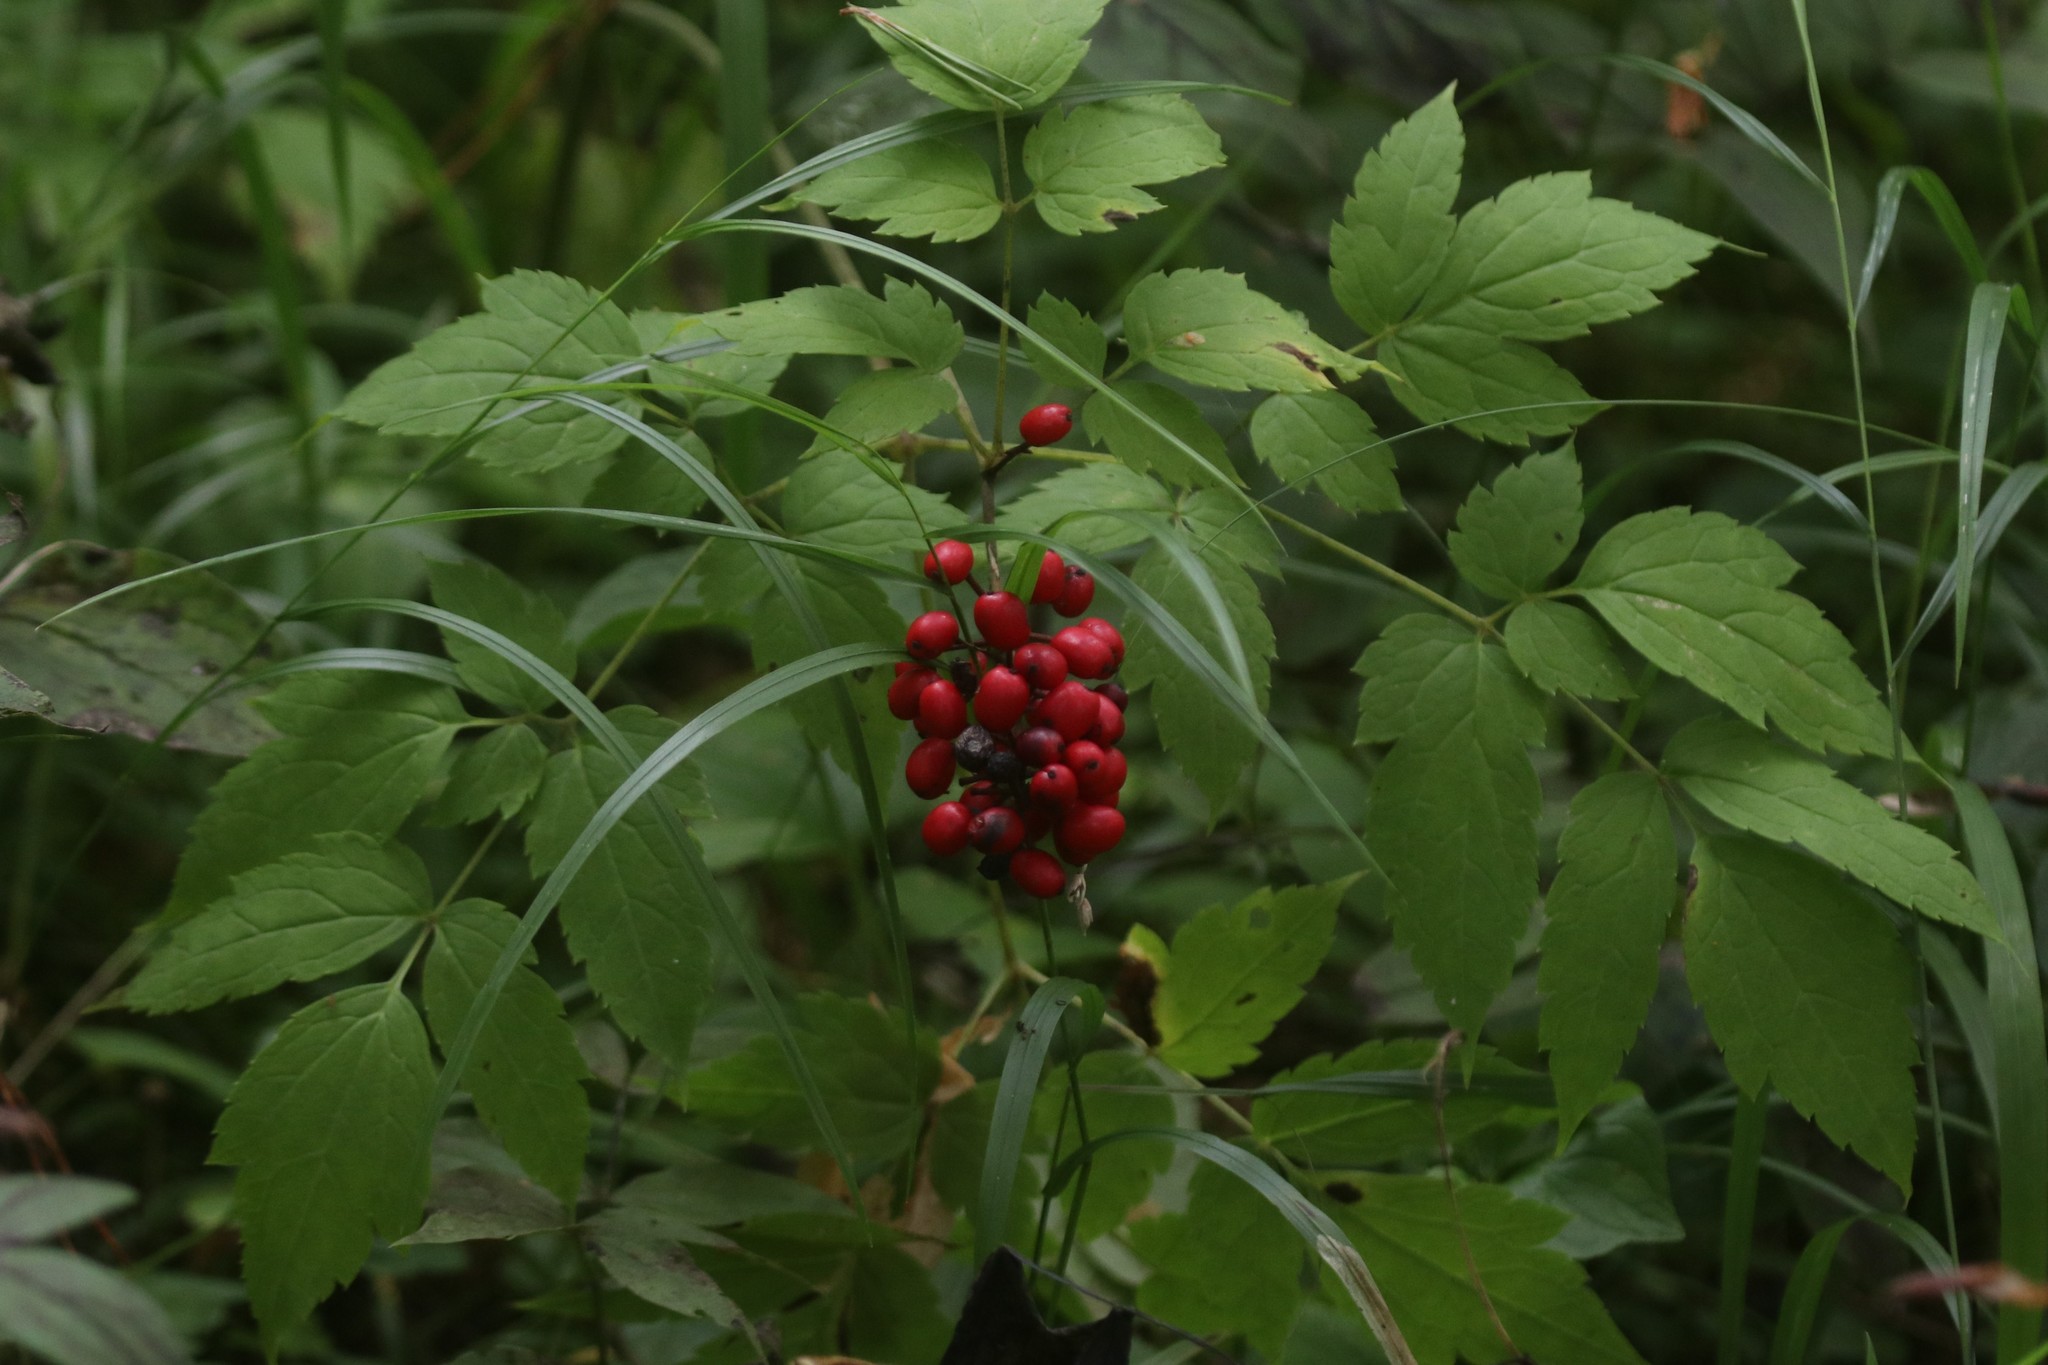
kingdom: Plantae
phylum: Tracheophyta
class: Magnoliopsida
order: Ranunculales
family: Ranunculaceae
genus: Actaea
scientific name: Actaea erythrocarpa
